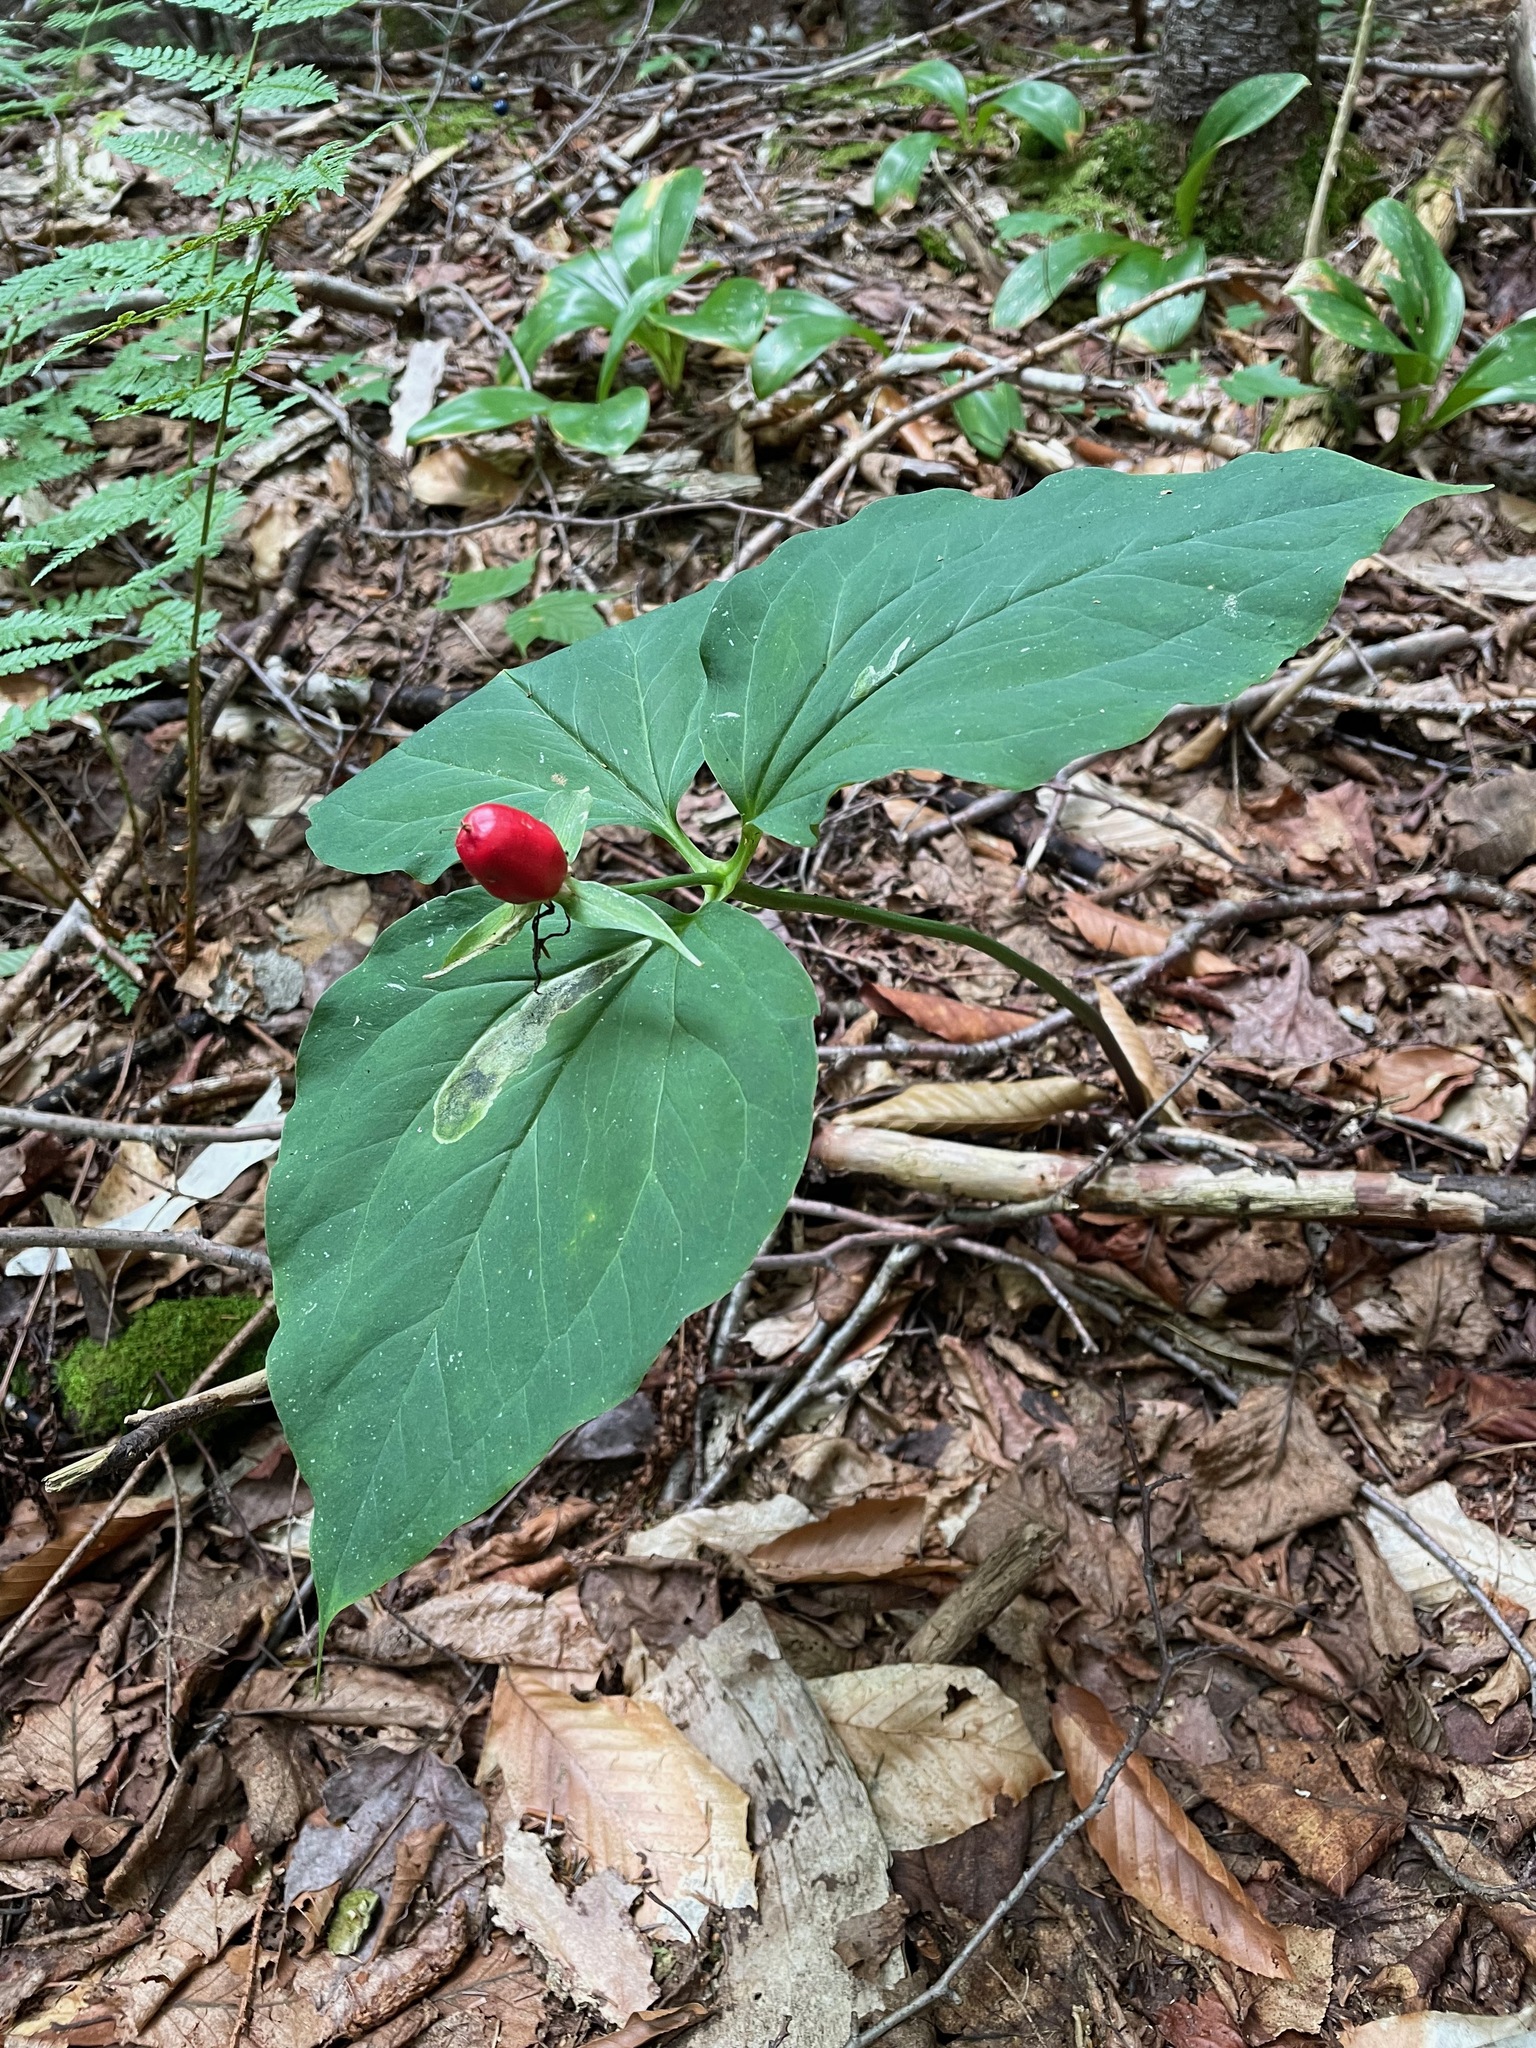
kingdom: Plantae
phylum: Tracheophyta
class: Liliopsida
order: Liliales
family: Melanthiaceae
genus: Trillium
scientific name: Trillium undulatum
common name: Paint trillium
